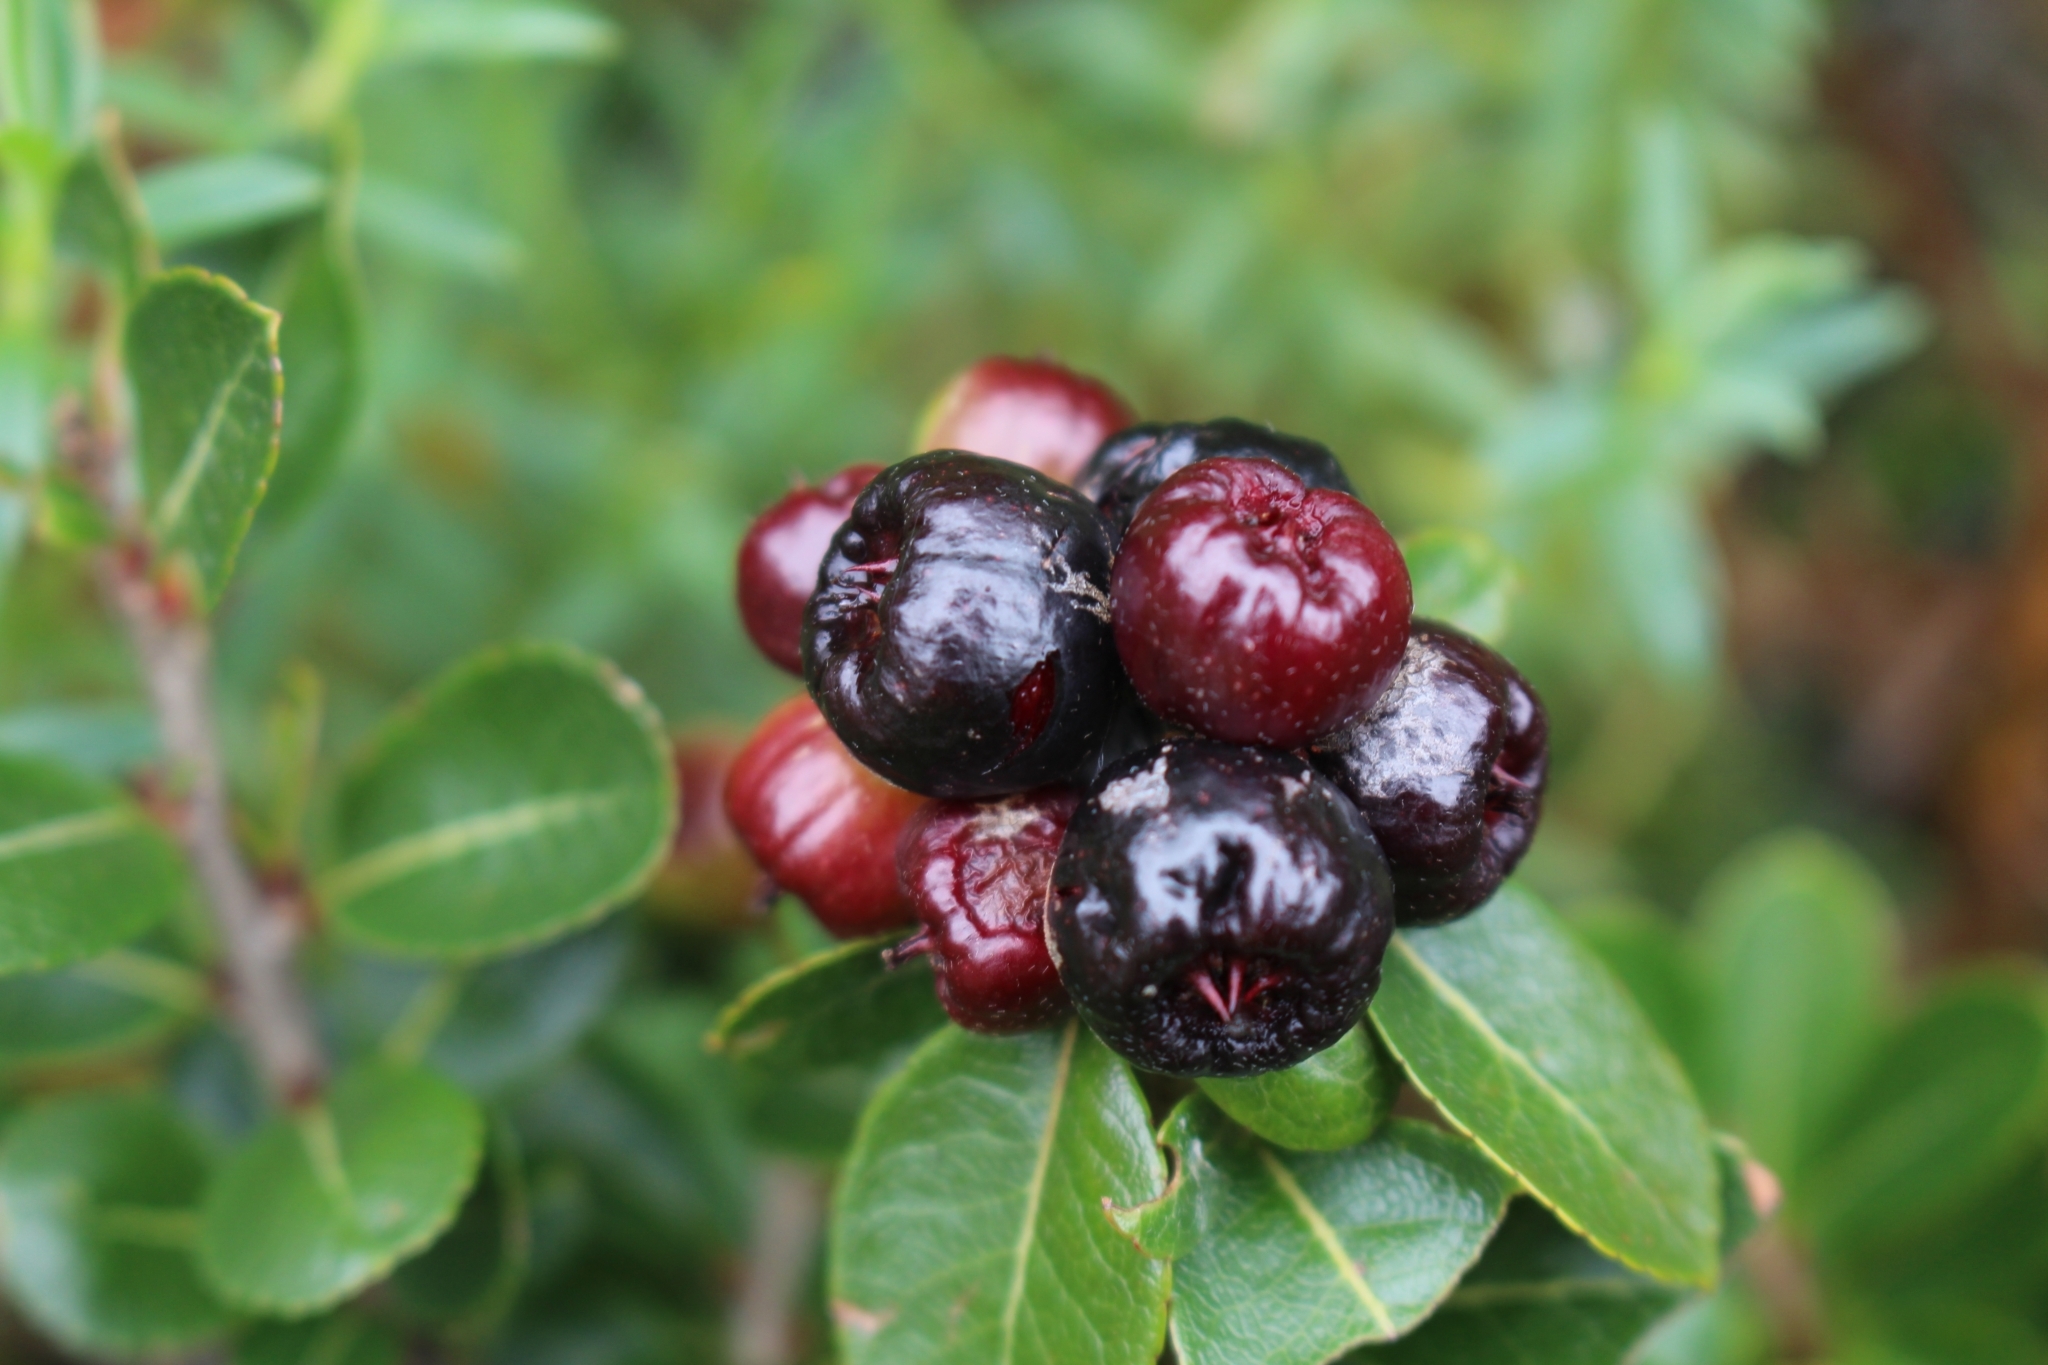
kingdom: Plantae
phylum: Tracheophyta
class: Magnoliopsida
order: Rosales
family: Rosaceae
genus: Hesperomeles
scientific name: Hesperomeles obtusifolia
